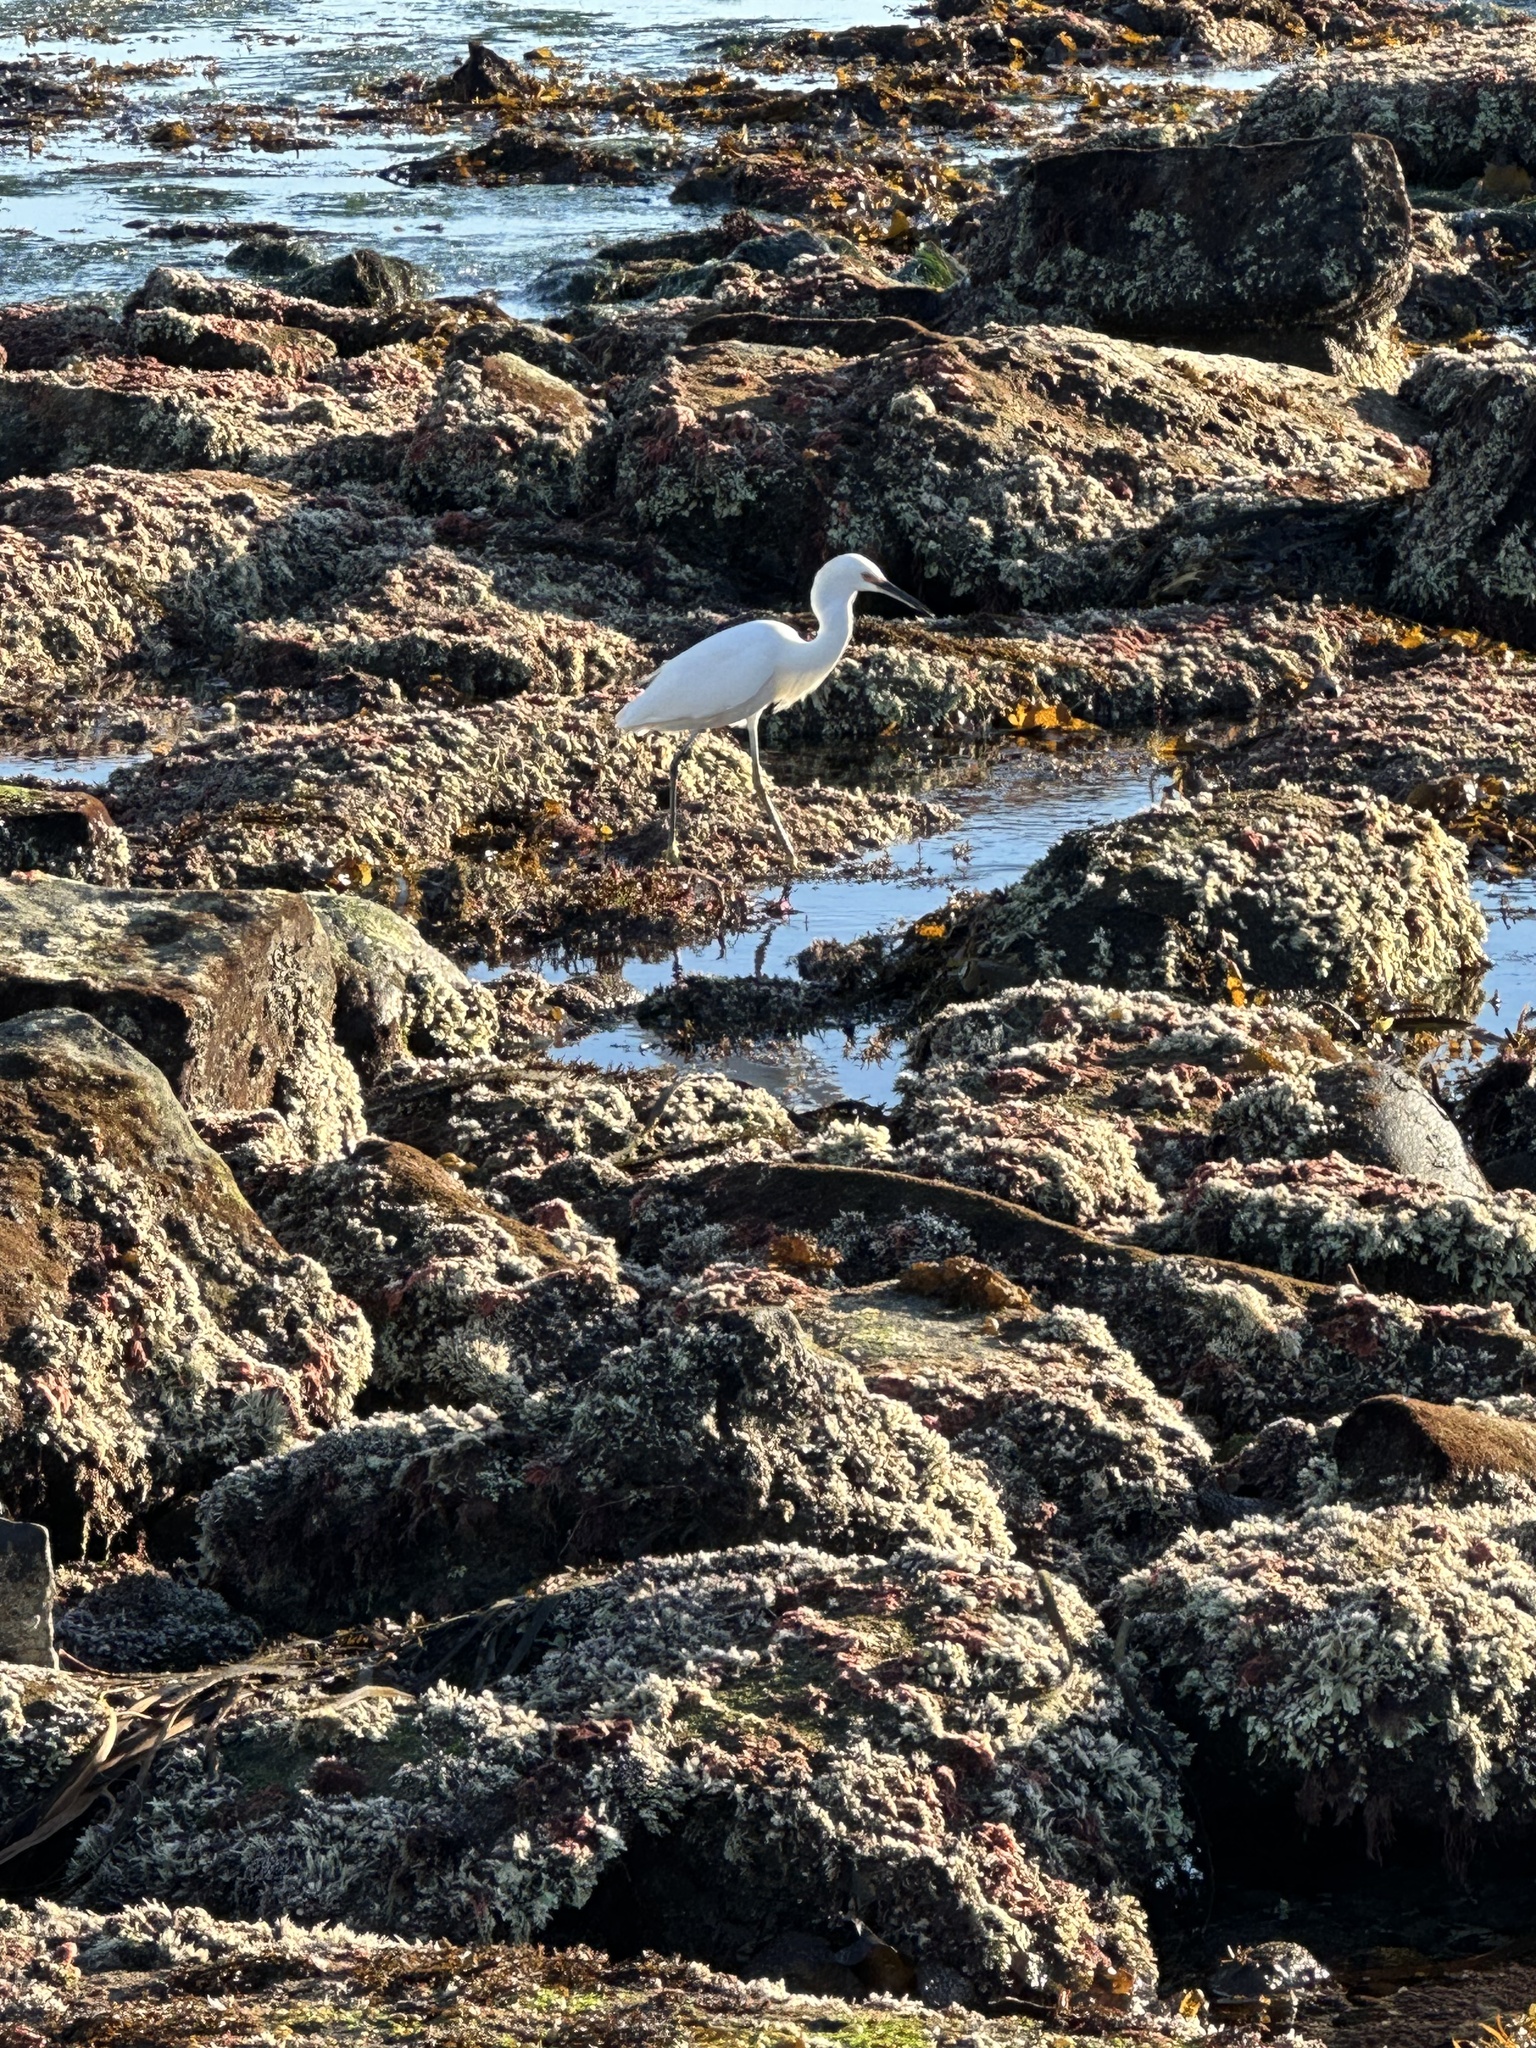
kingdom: Animalia
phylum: Chordata
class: Aves
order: Pelecaniformes
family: Ardeidae
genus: Egretta
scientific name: Egretta thula
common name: Snowy egret
